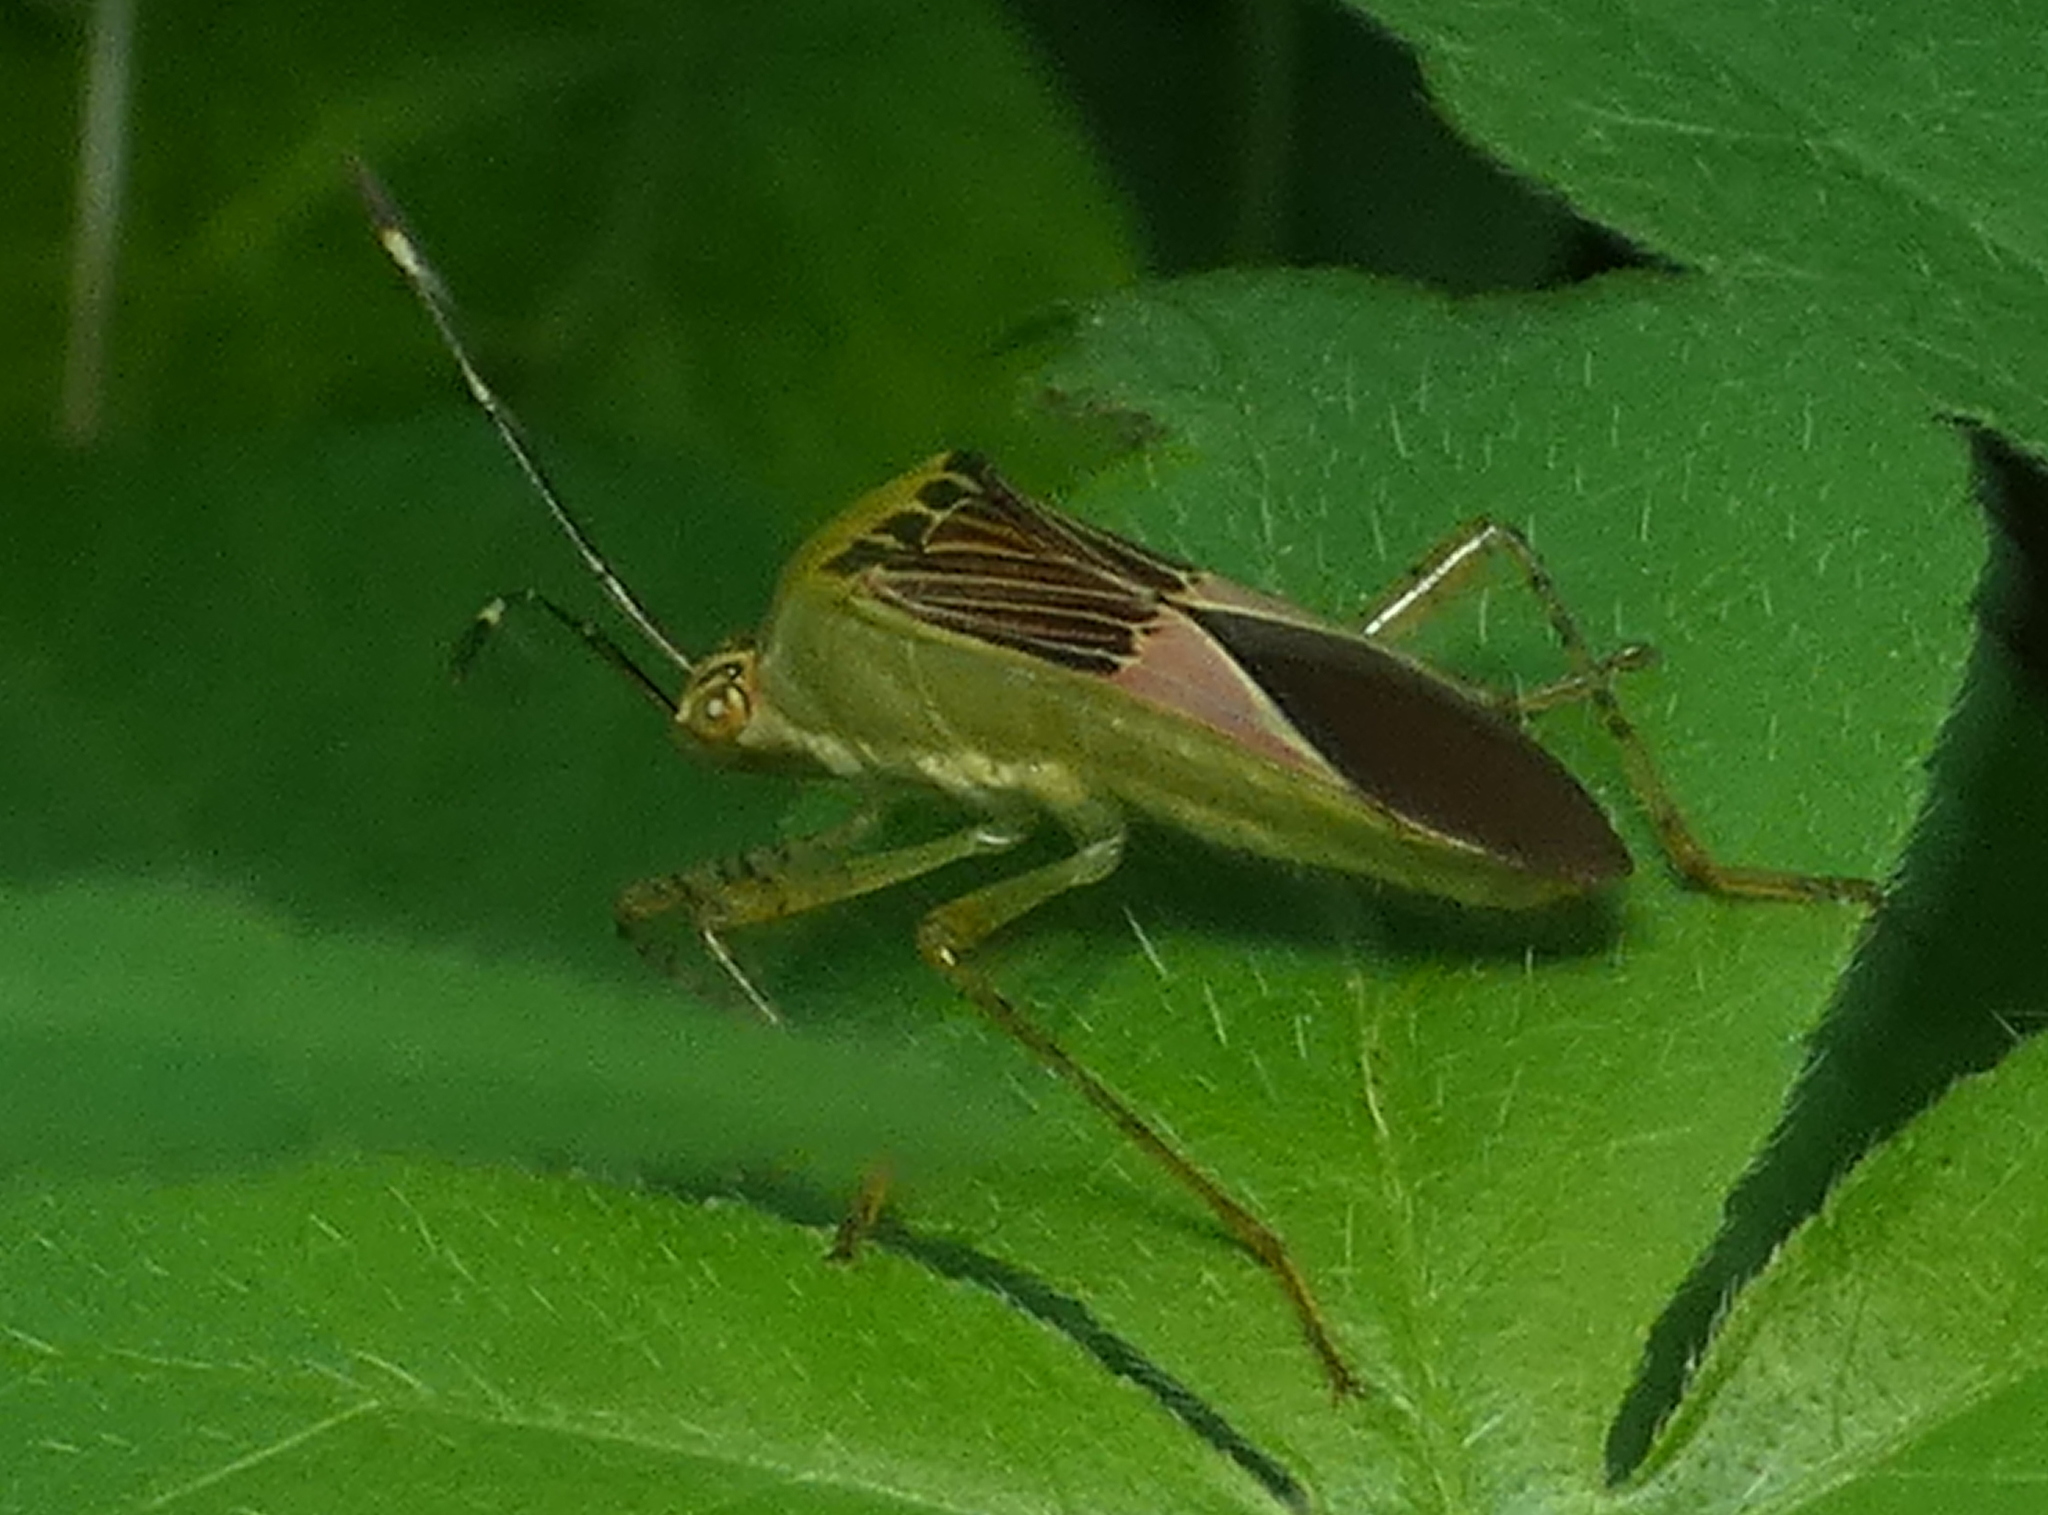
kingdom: Animalia
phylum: Arthropoda
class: Insecta
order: Hemiptera
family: Coreidae
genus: Hypselonotus
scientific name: Hypselonotus fulvus
